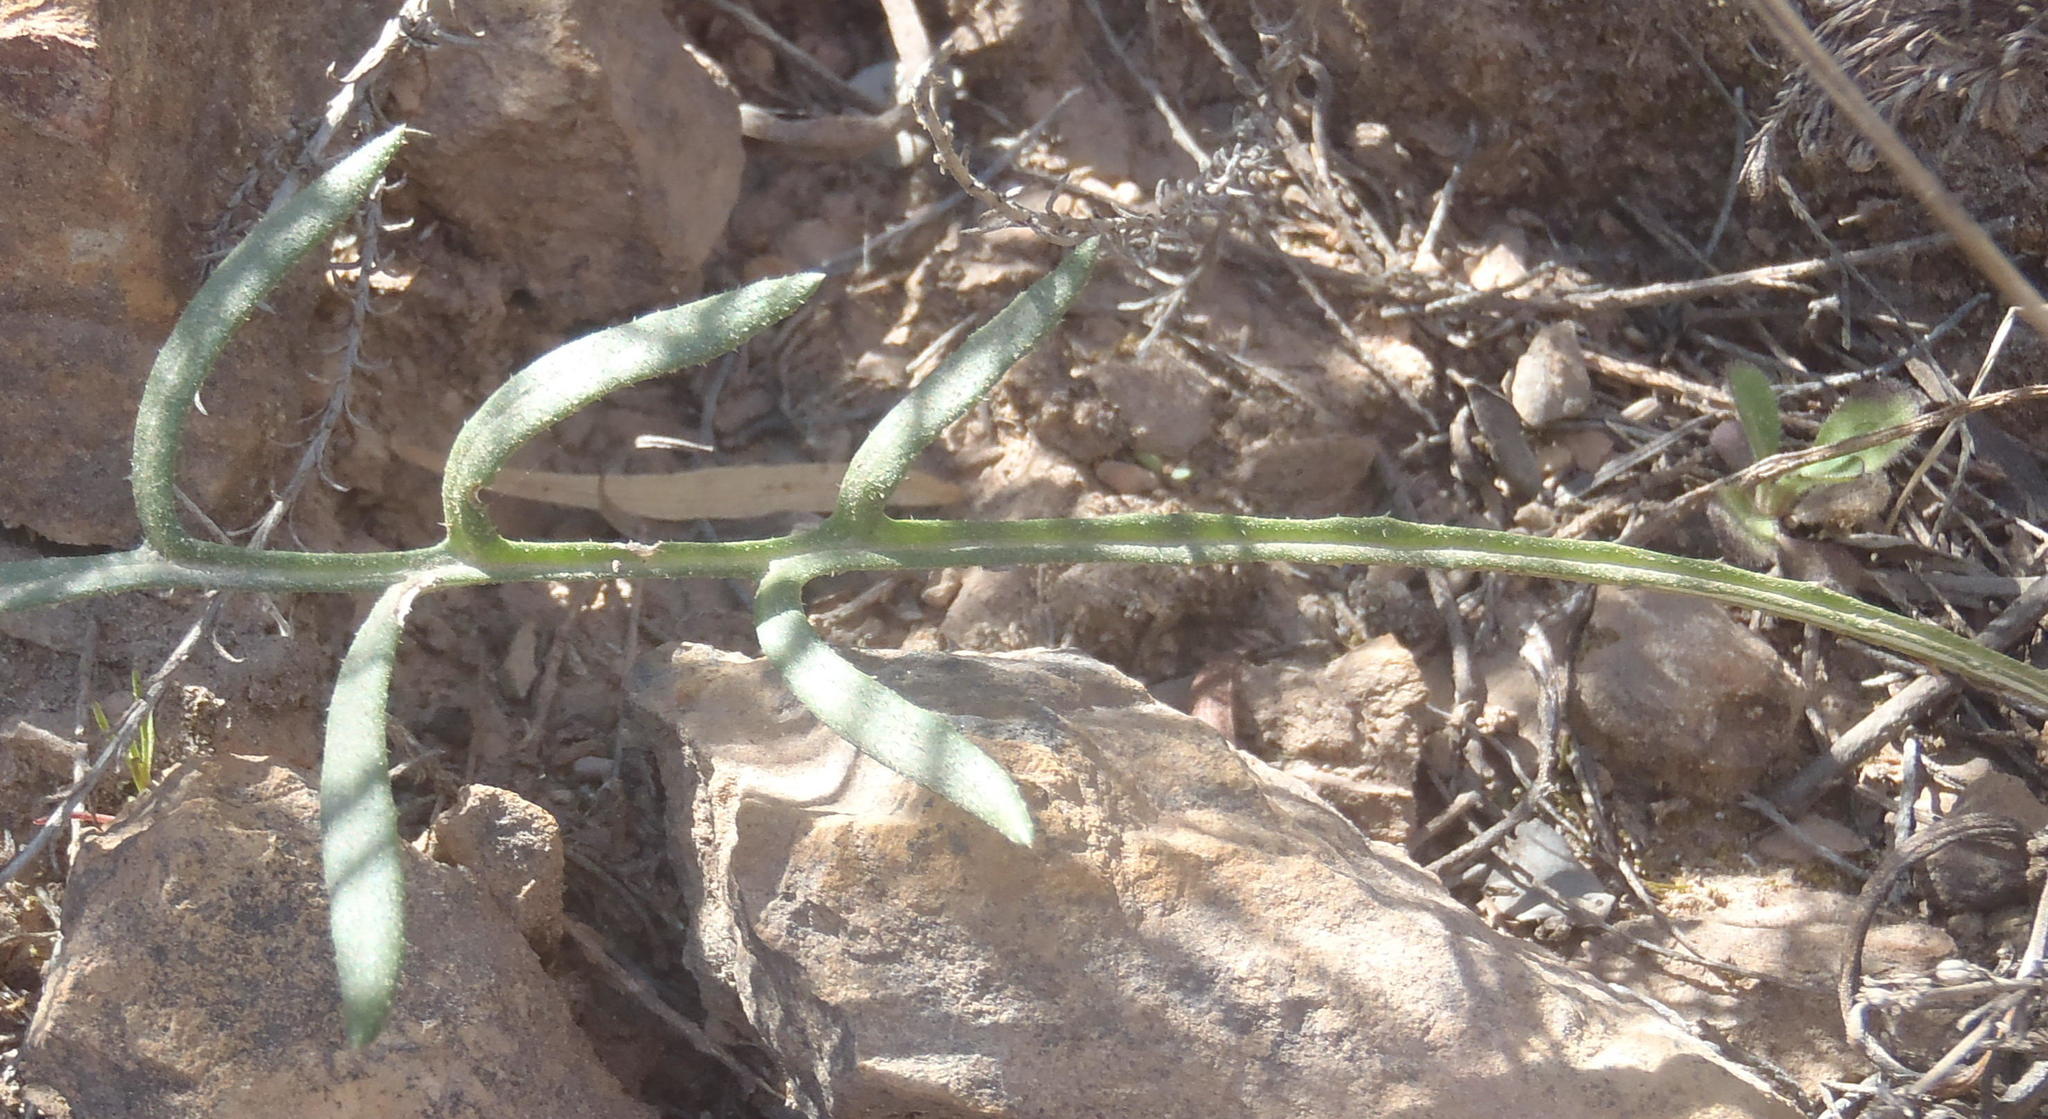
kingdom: Plantae
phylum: Tracheophyta
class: Magnoliopsida
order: Asterales
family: Asteraceae
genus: Gazania
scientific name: Gazania krebsiana
